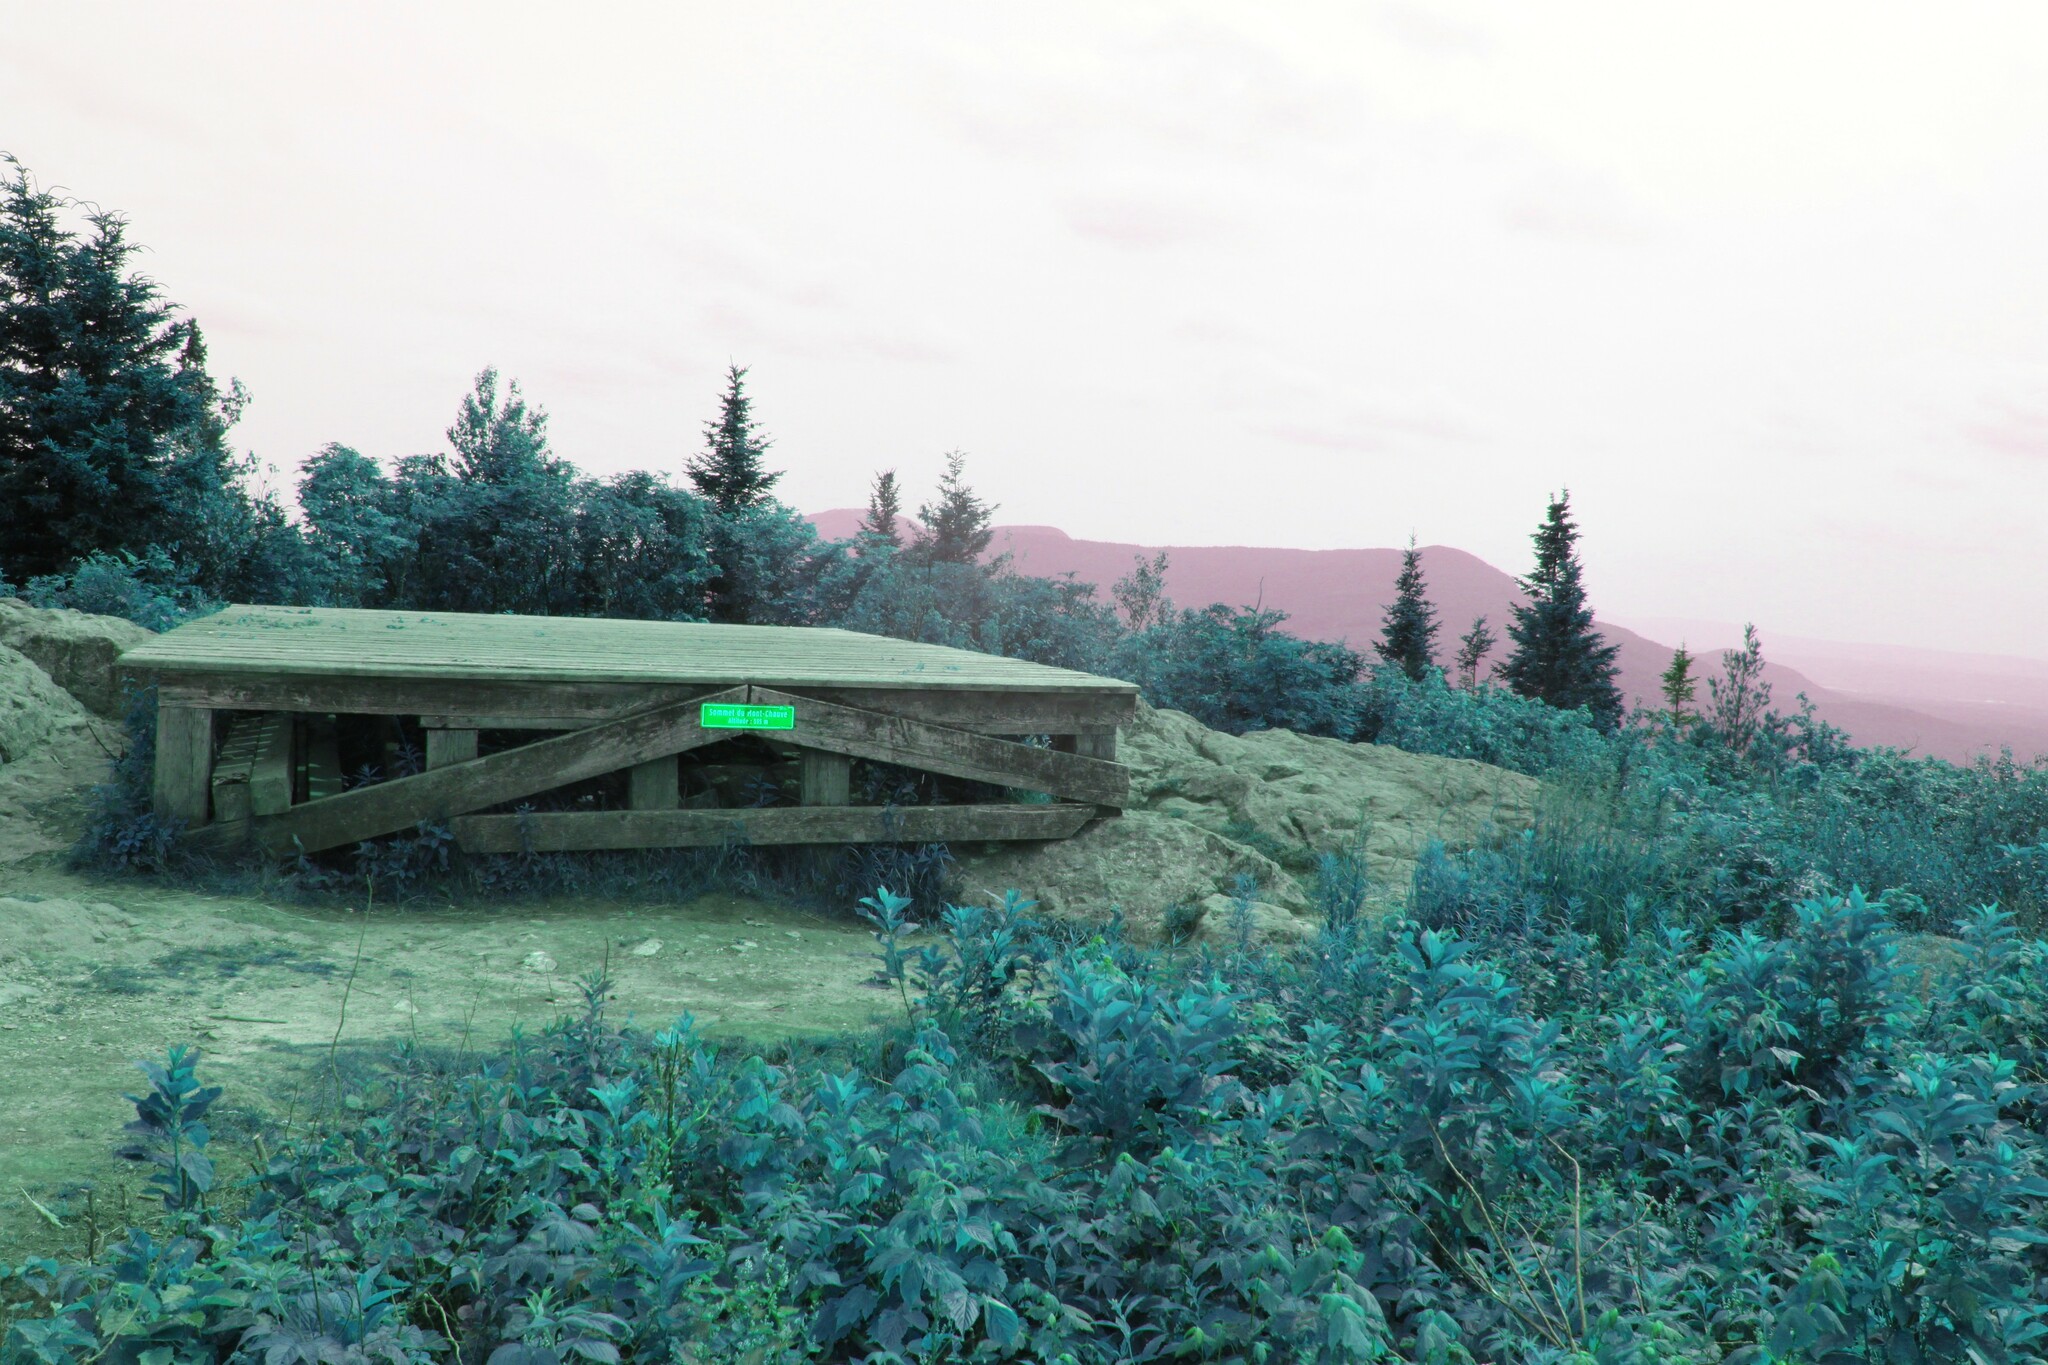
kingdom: Plantae
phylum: Tracheophyta
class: Magnoliopsida
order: Sapindales
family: Sapindaceae
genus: Acer
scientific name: Acer spicatum
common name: Mountain maple
